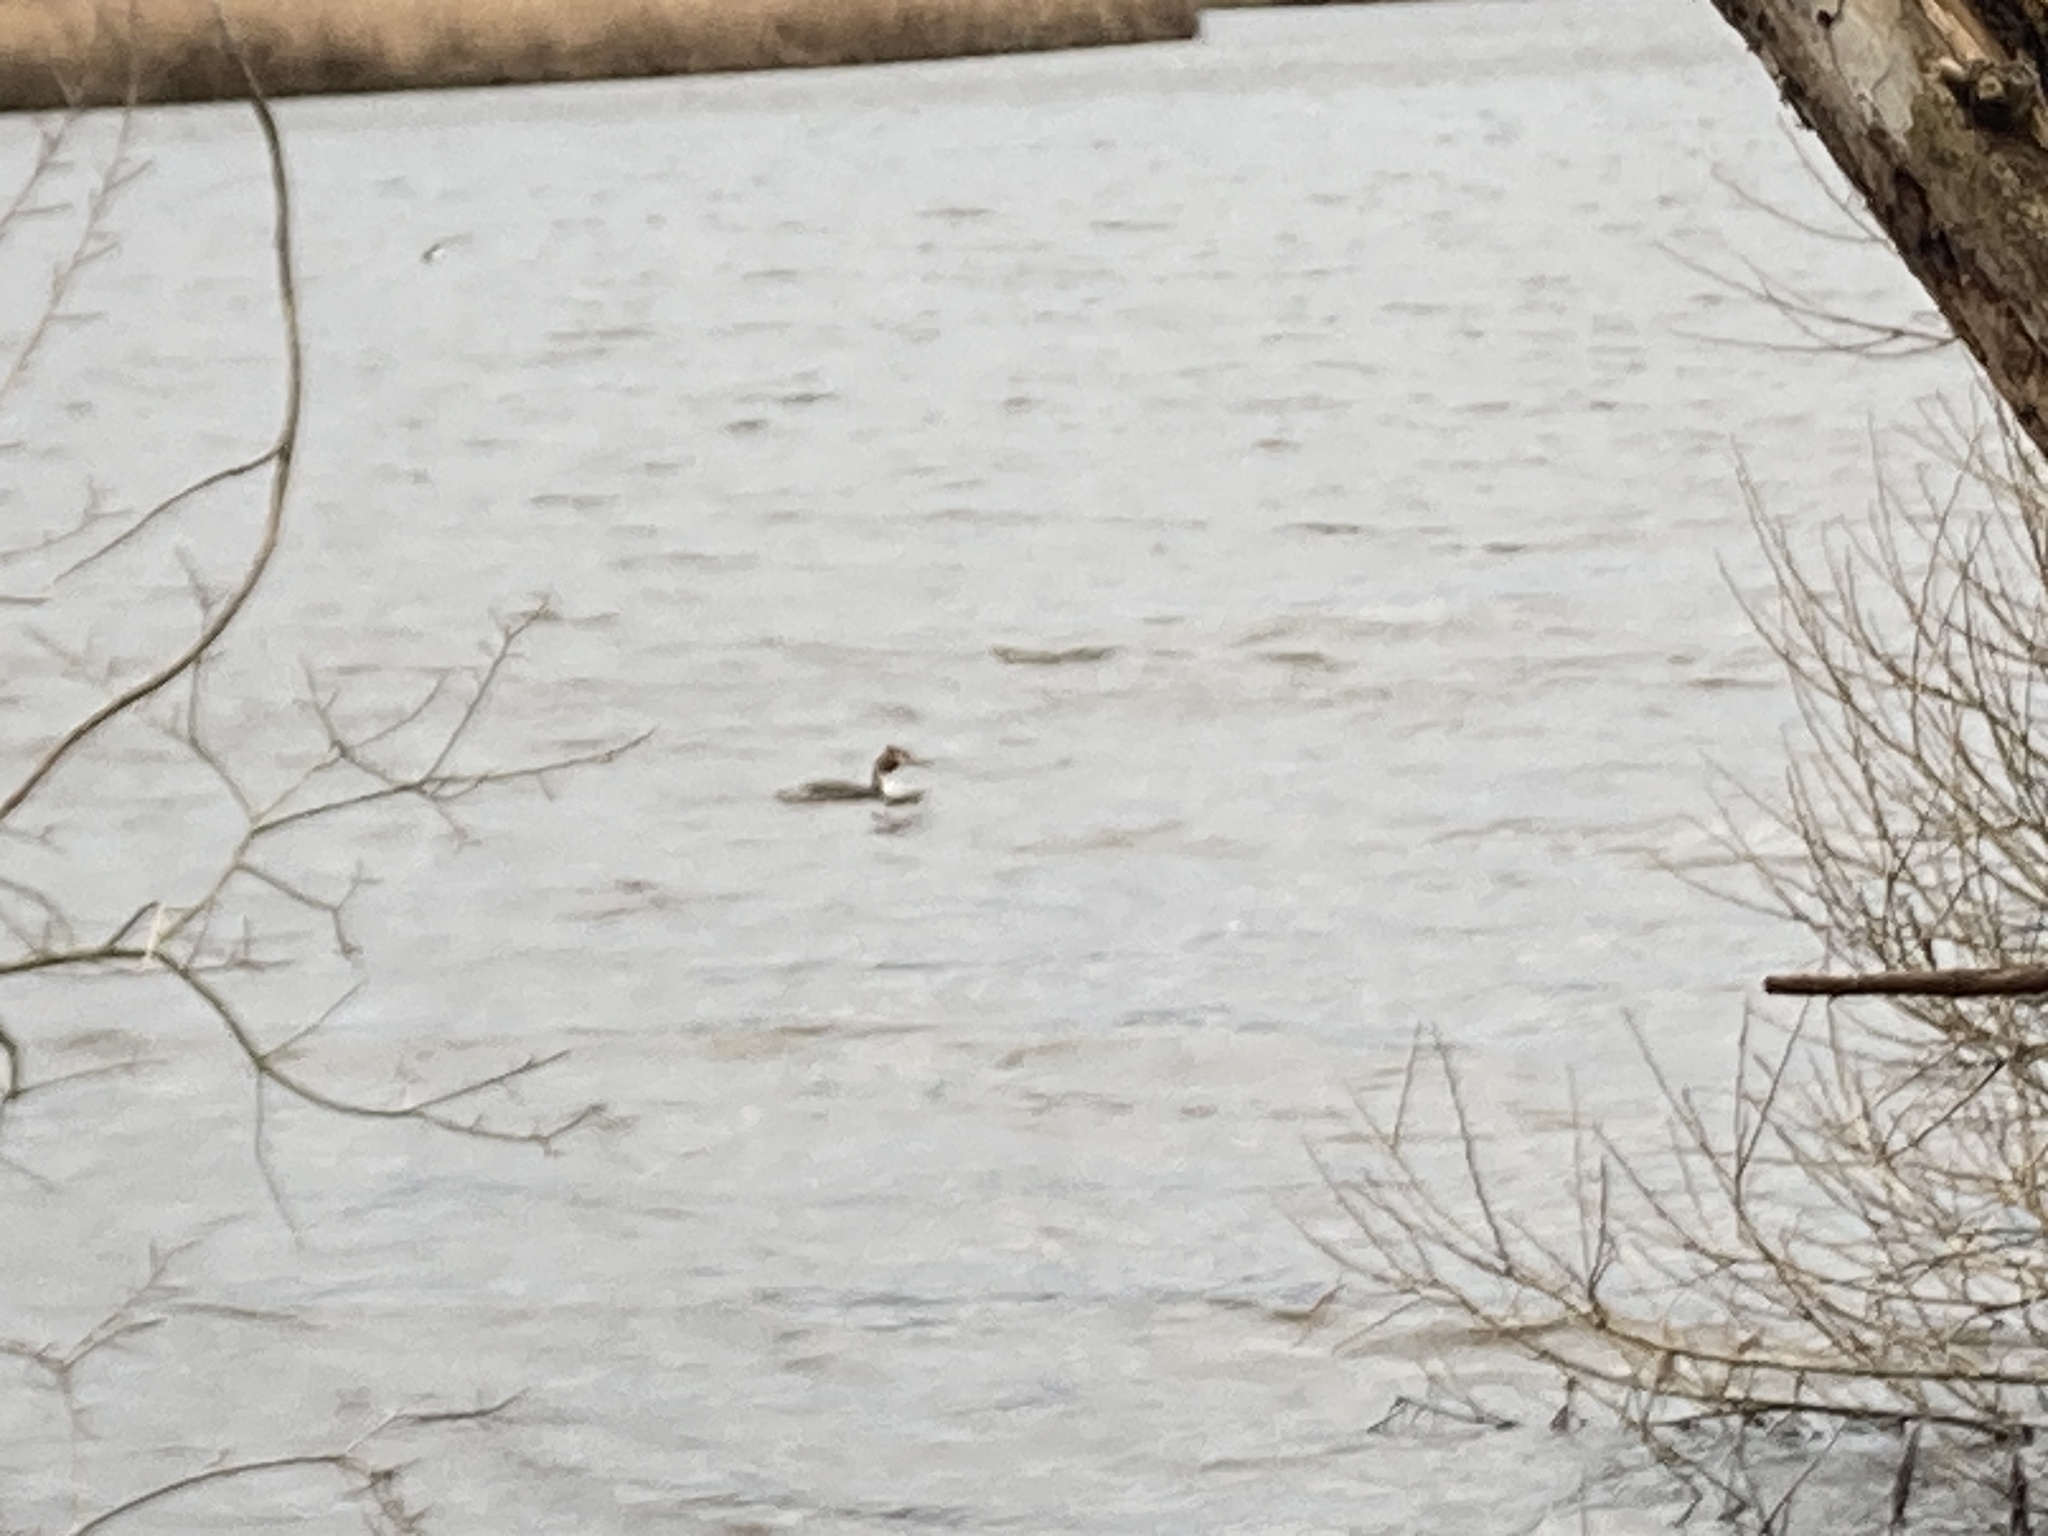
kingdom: Animalia
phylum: Chordata
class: Aves
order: Podicipediformes
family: Podicipedidae
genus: Podiceps
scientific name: Podiceps cristatus
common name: Great crested grebe
